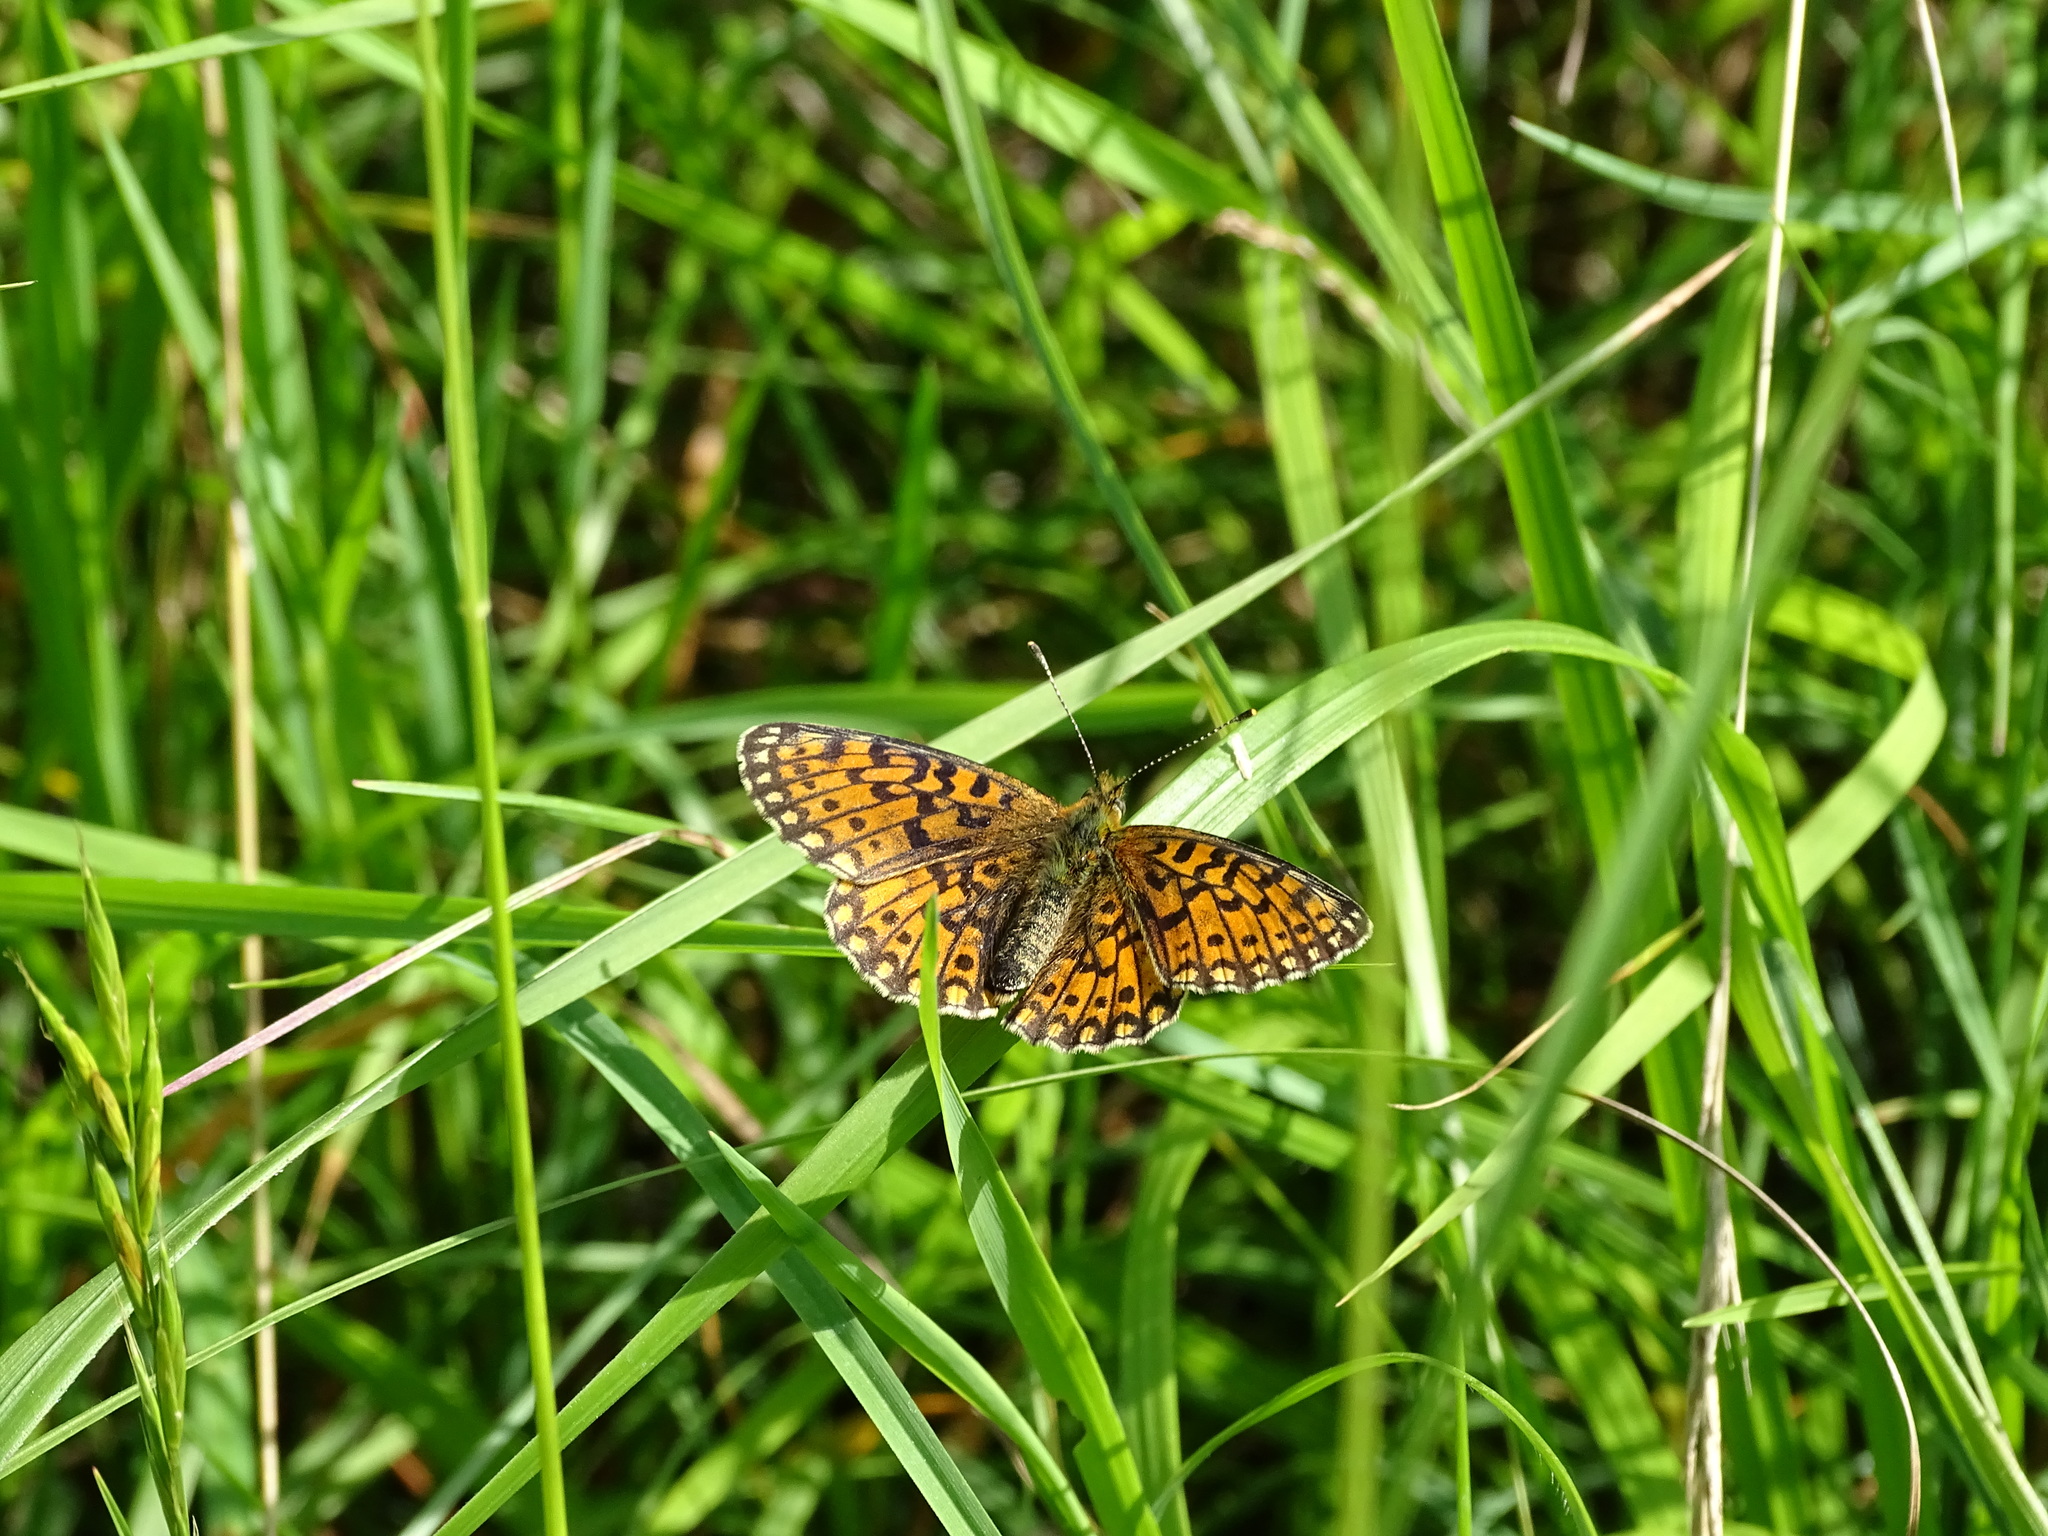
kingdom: Animalia
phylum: Arthropoda
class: Insecta
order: Lepidoptera
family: Nymphalidae
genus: Boloria
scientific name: Boloria selene
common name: Small pearl-bordered fritillary
